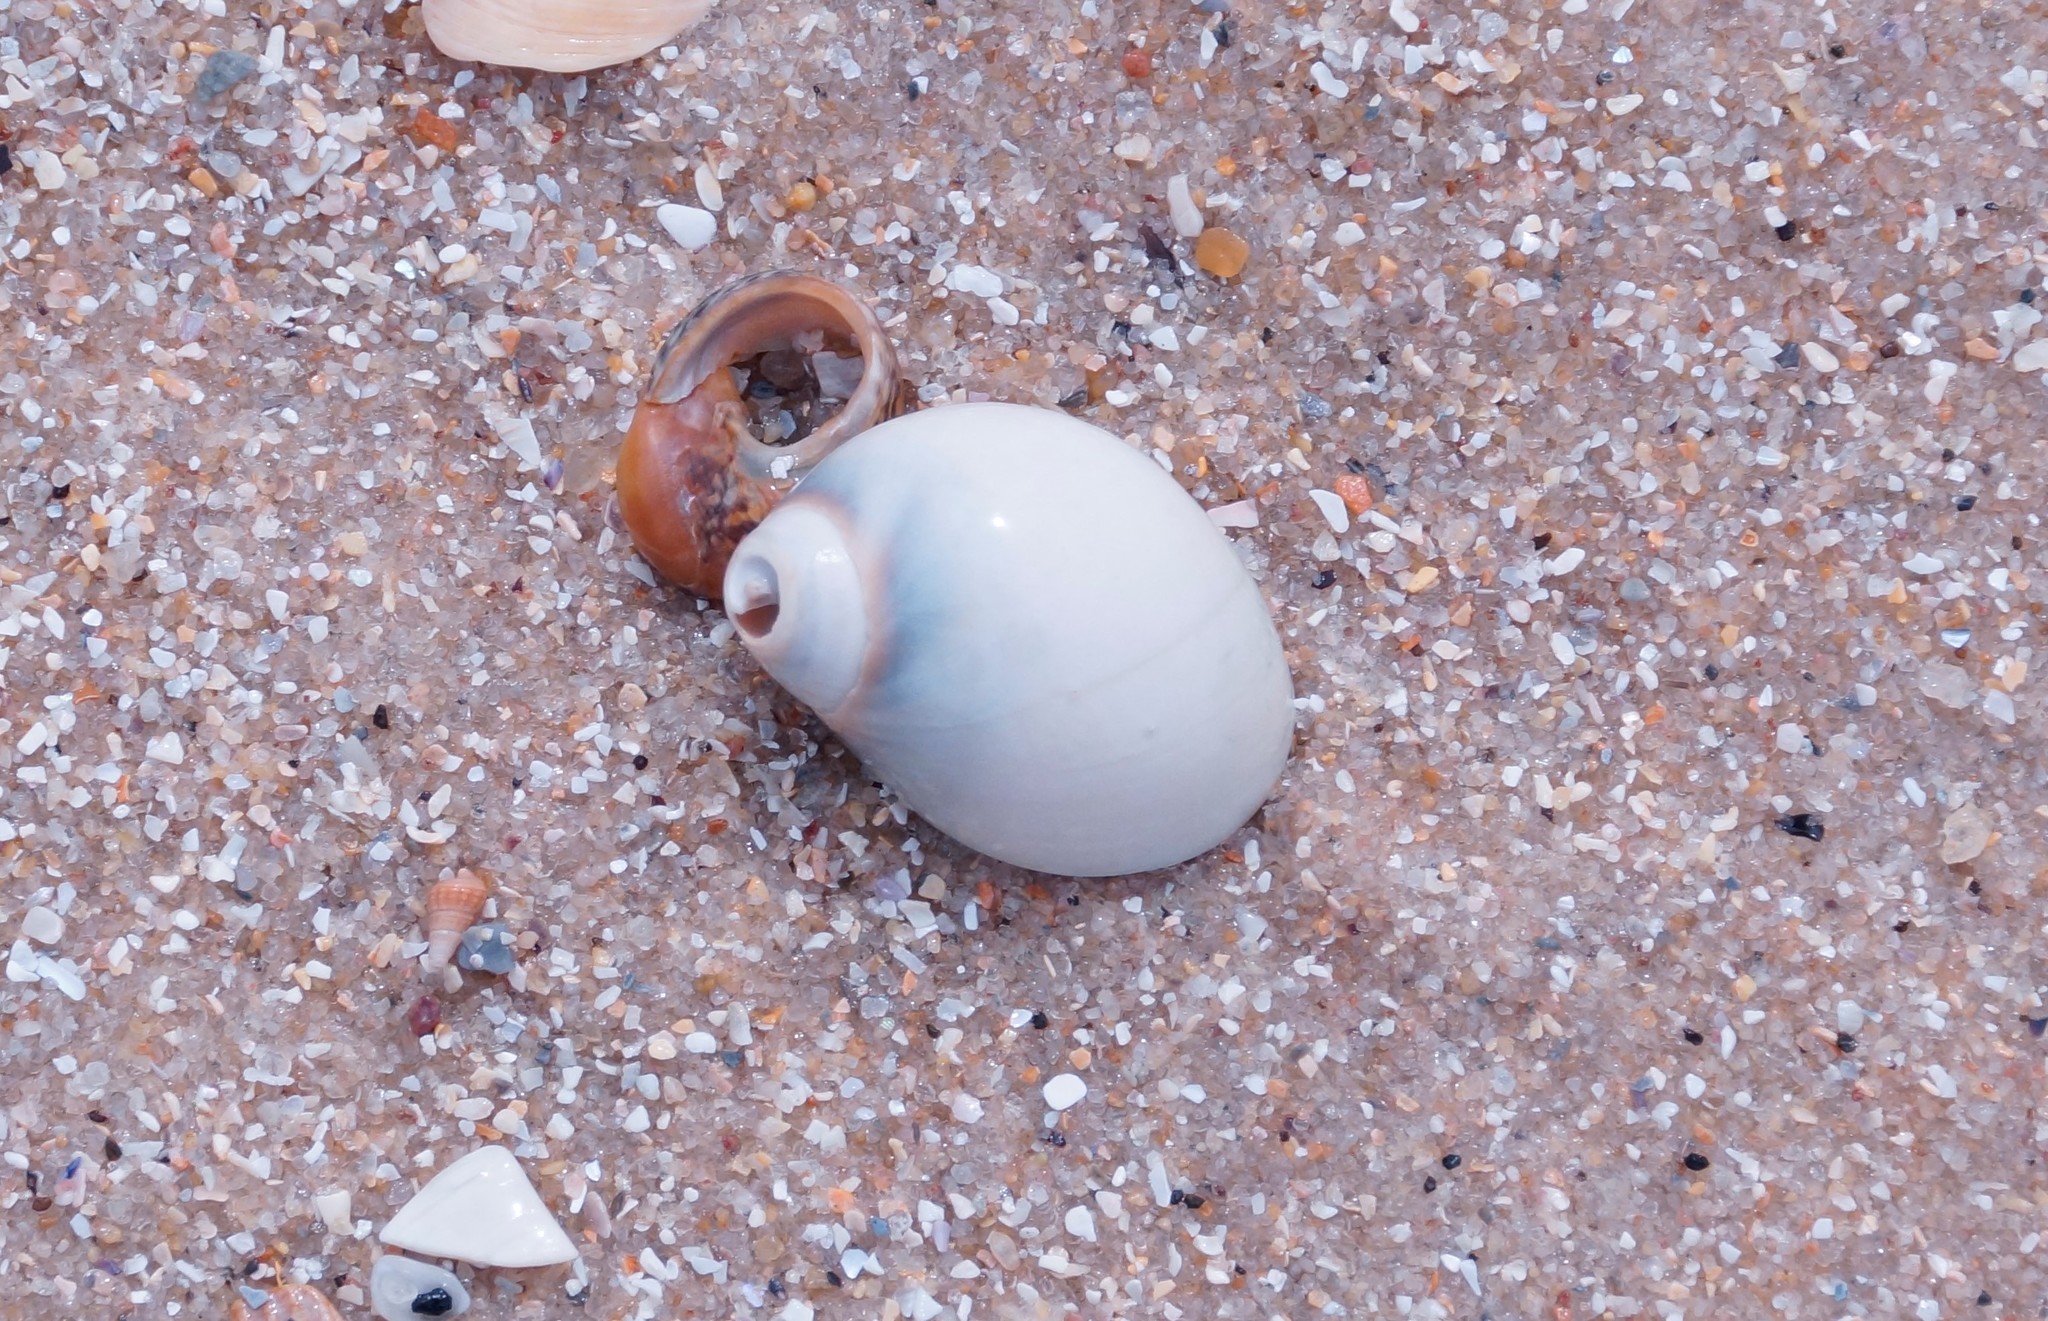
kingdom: Animalia
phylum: Mollusca
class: Gastropoda
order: Littorinimorpha
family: Naticidae
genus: Conuber
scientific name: Conuber conicum
